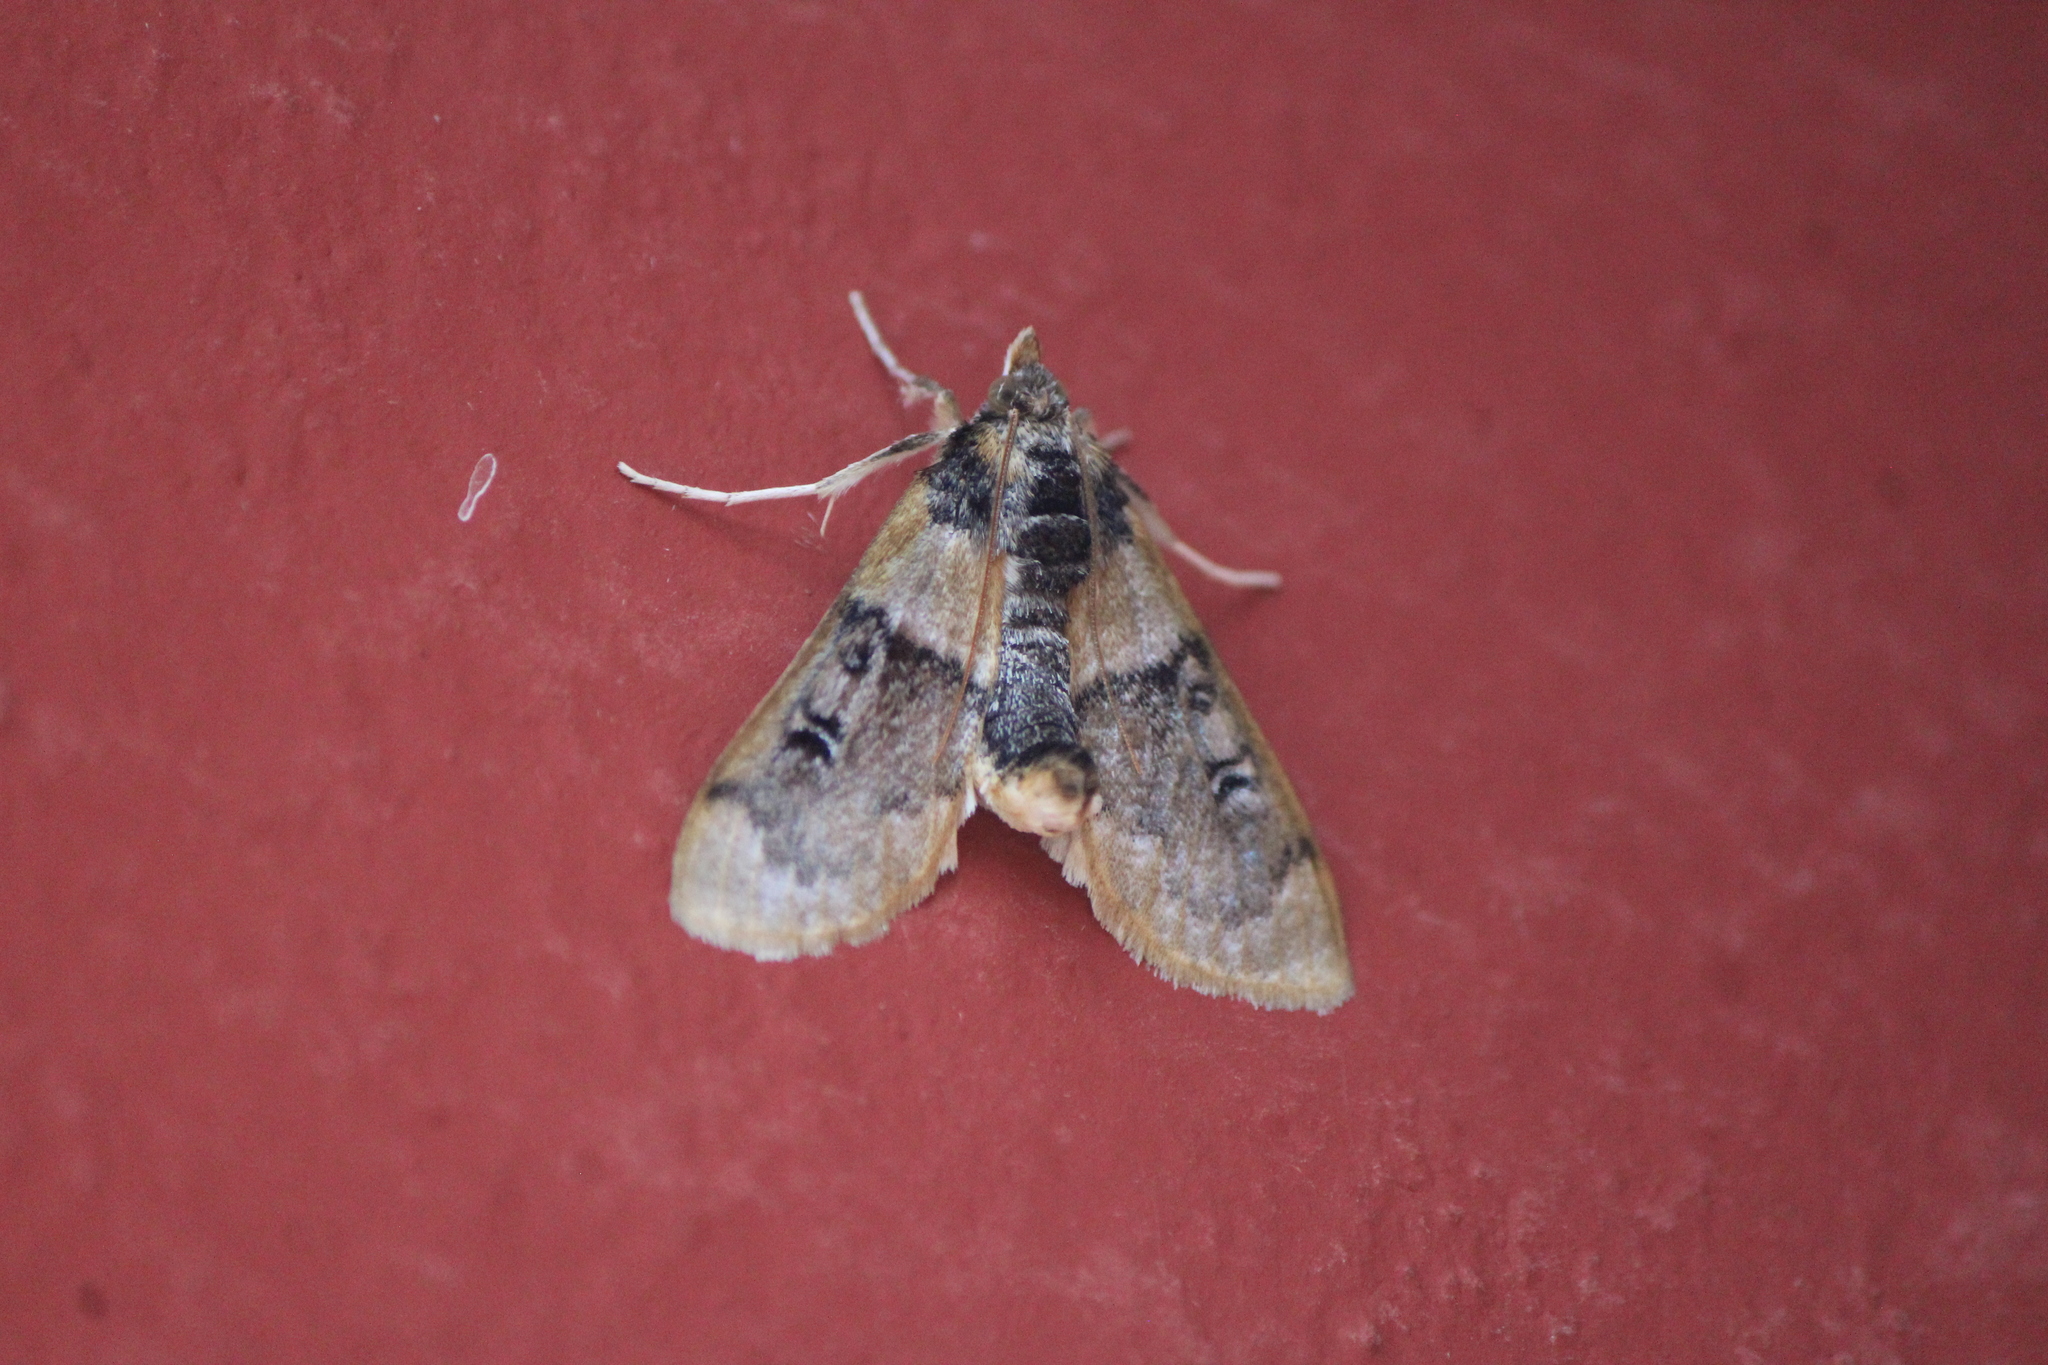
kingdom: Animalia
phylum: Arthropoda
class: Insecta
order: Lepidoptera
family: Crambidae
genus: Laniifera
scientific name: Laniifera cyclades
